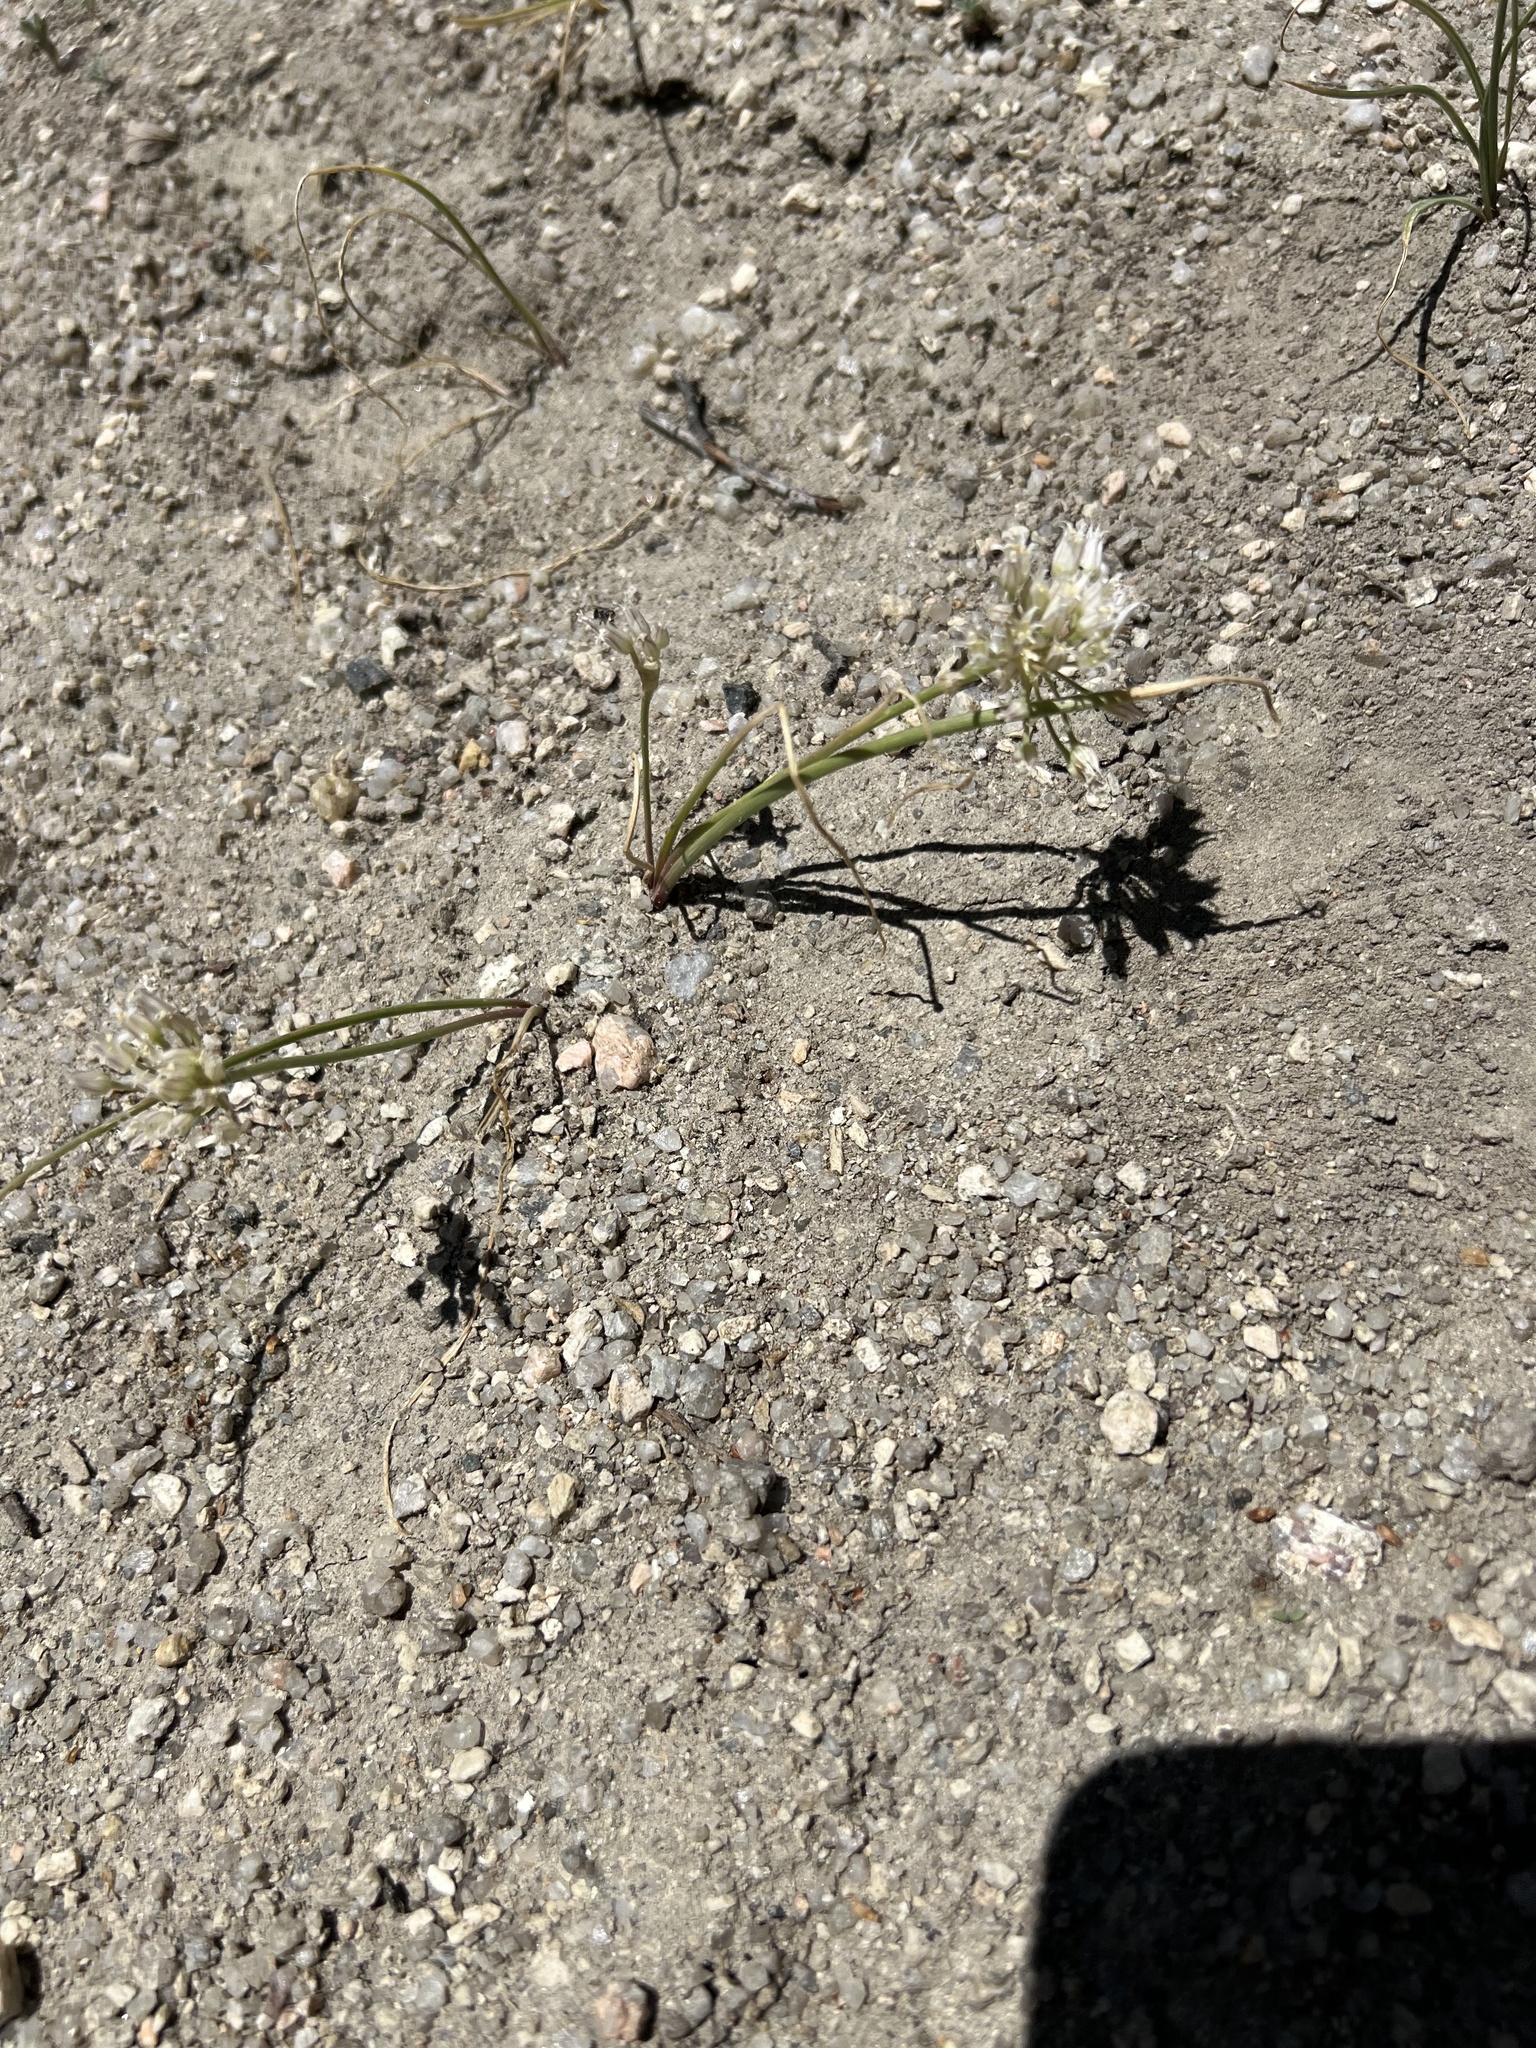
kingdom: Plantae
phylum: Tracheophyta
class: Liliopsida
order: Asparagales
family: Amaryllidaceae
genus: Allium
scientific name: Allium textile
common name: Prairie onion
